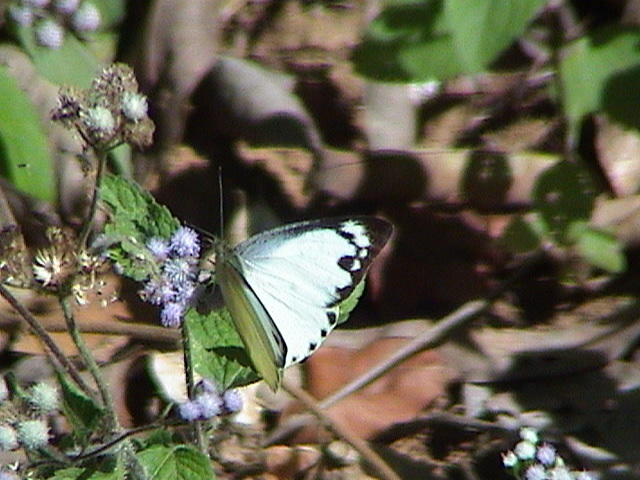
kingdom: Animalia
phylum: Arthropoda
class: Insecta
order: Lepidoptera
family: Pieridae
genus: Appias
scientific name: Appias albina
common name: Common albatross
